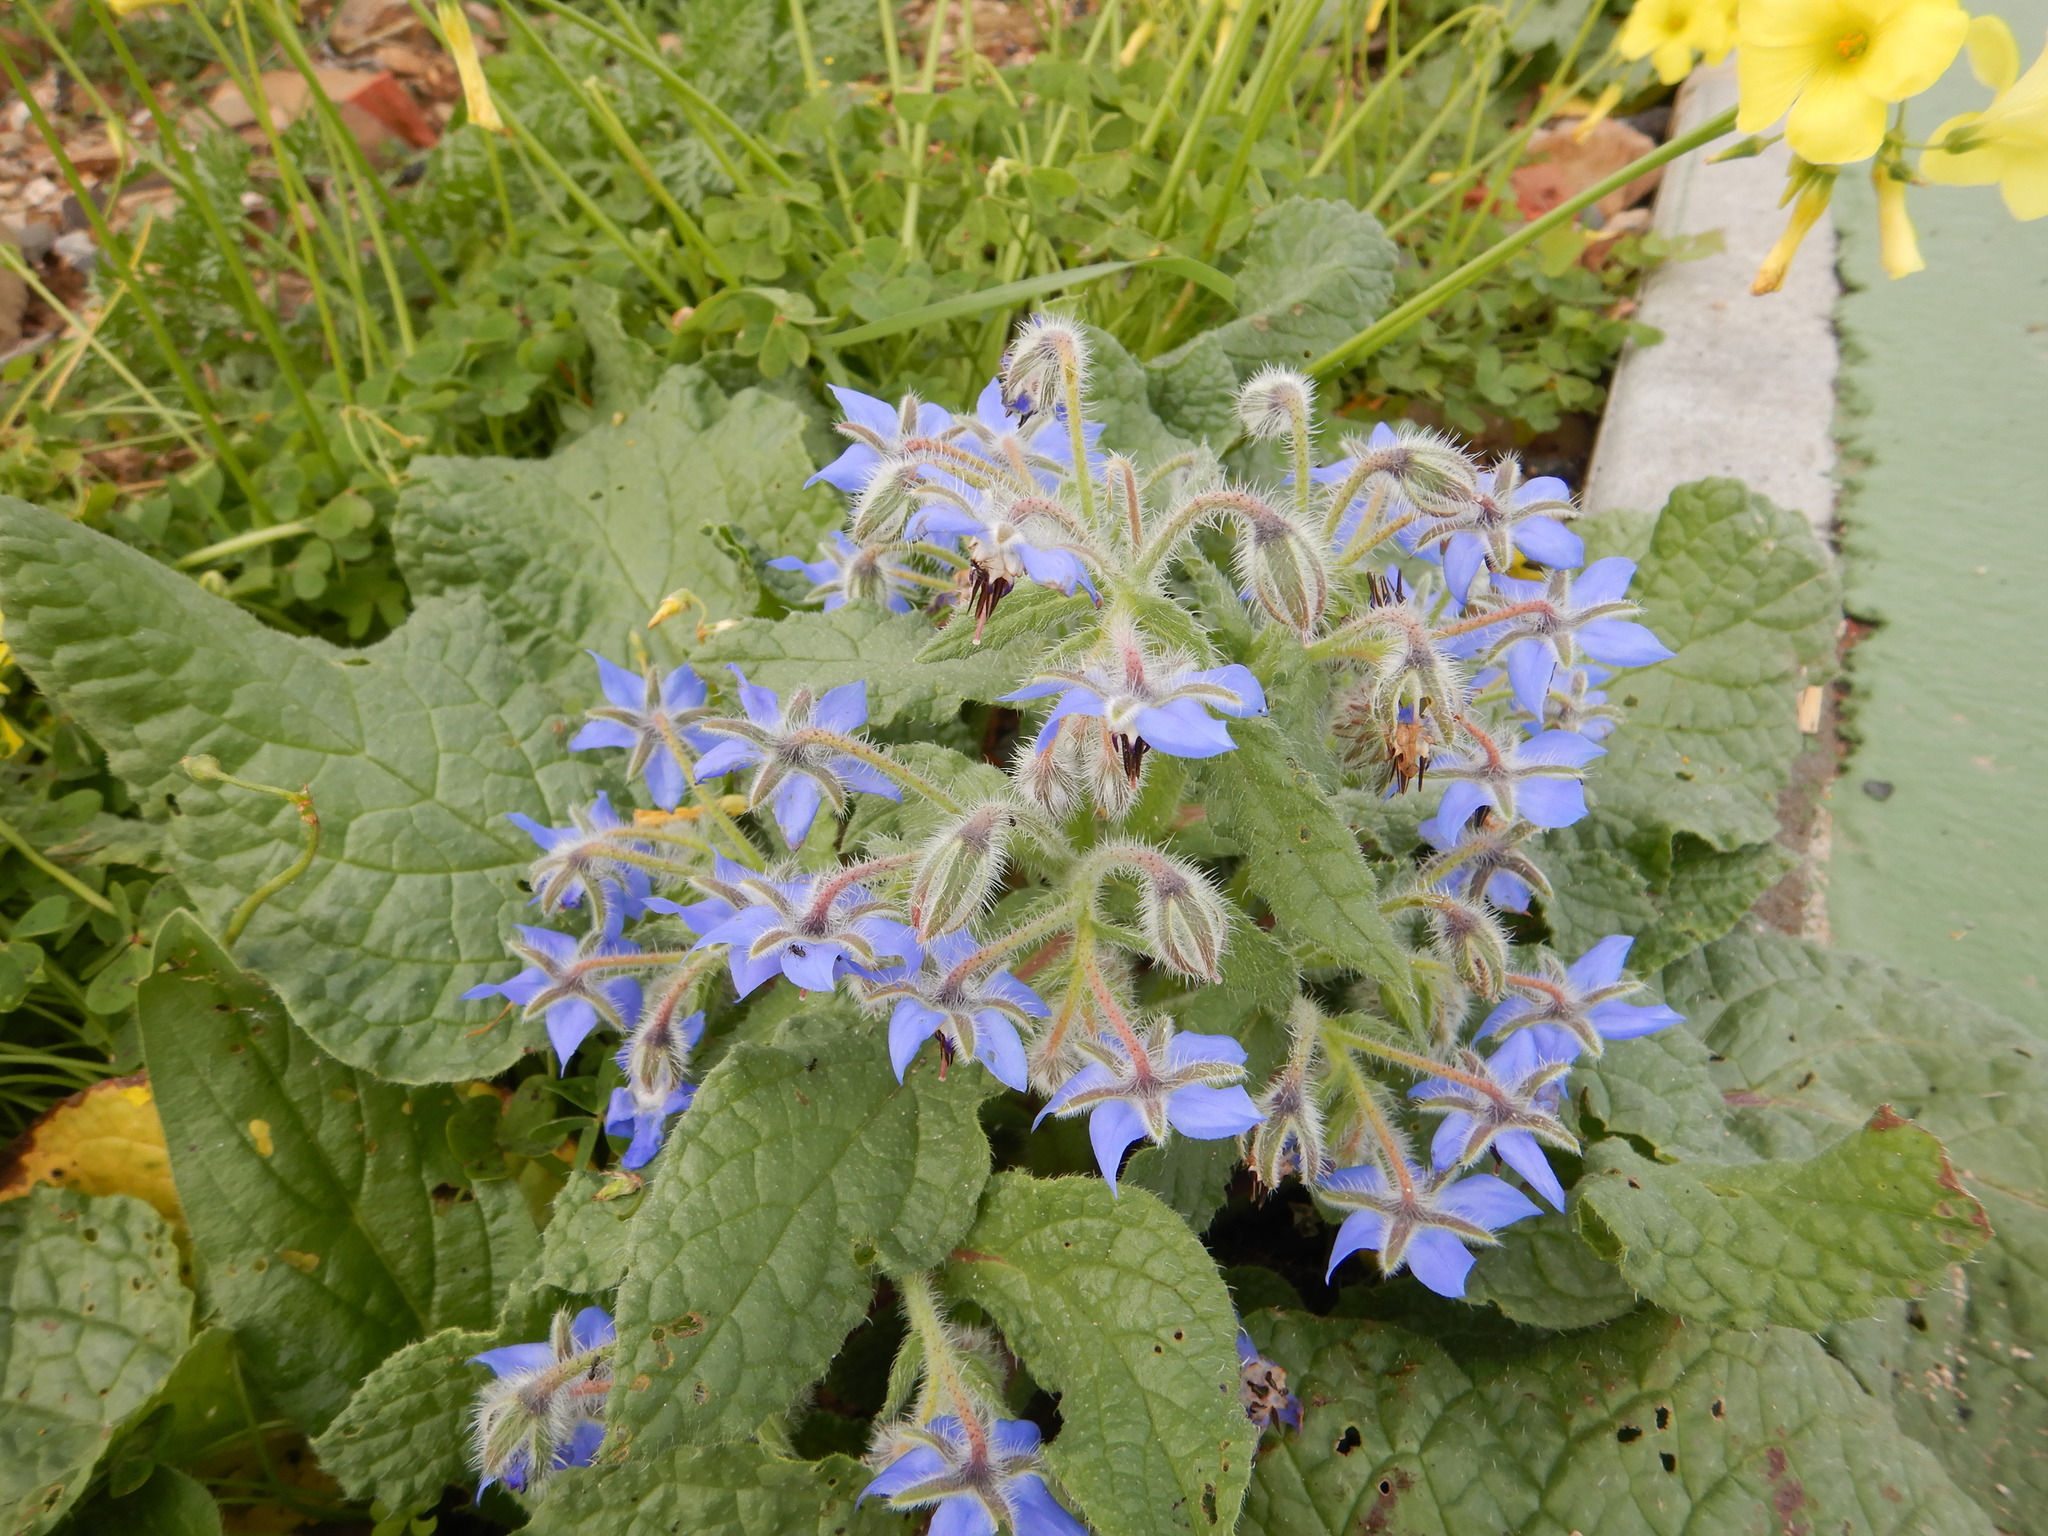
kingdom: Plantae
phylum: Tracheophyta
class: Magnoliopsida
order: Boraginales
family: Boraginaceae
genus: Borago
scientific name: Borago officinalis
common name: Borage
